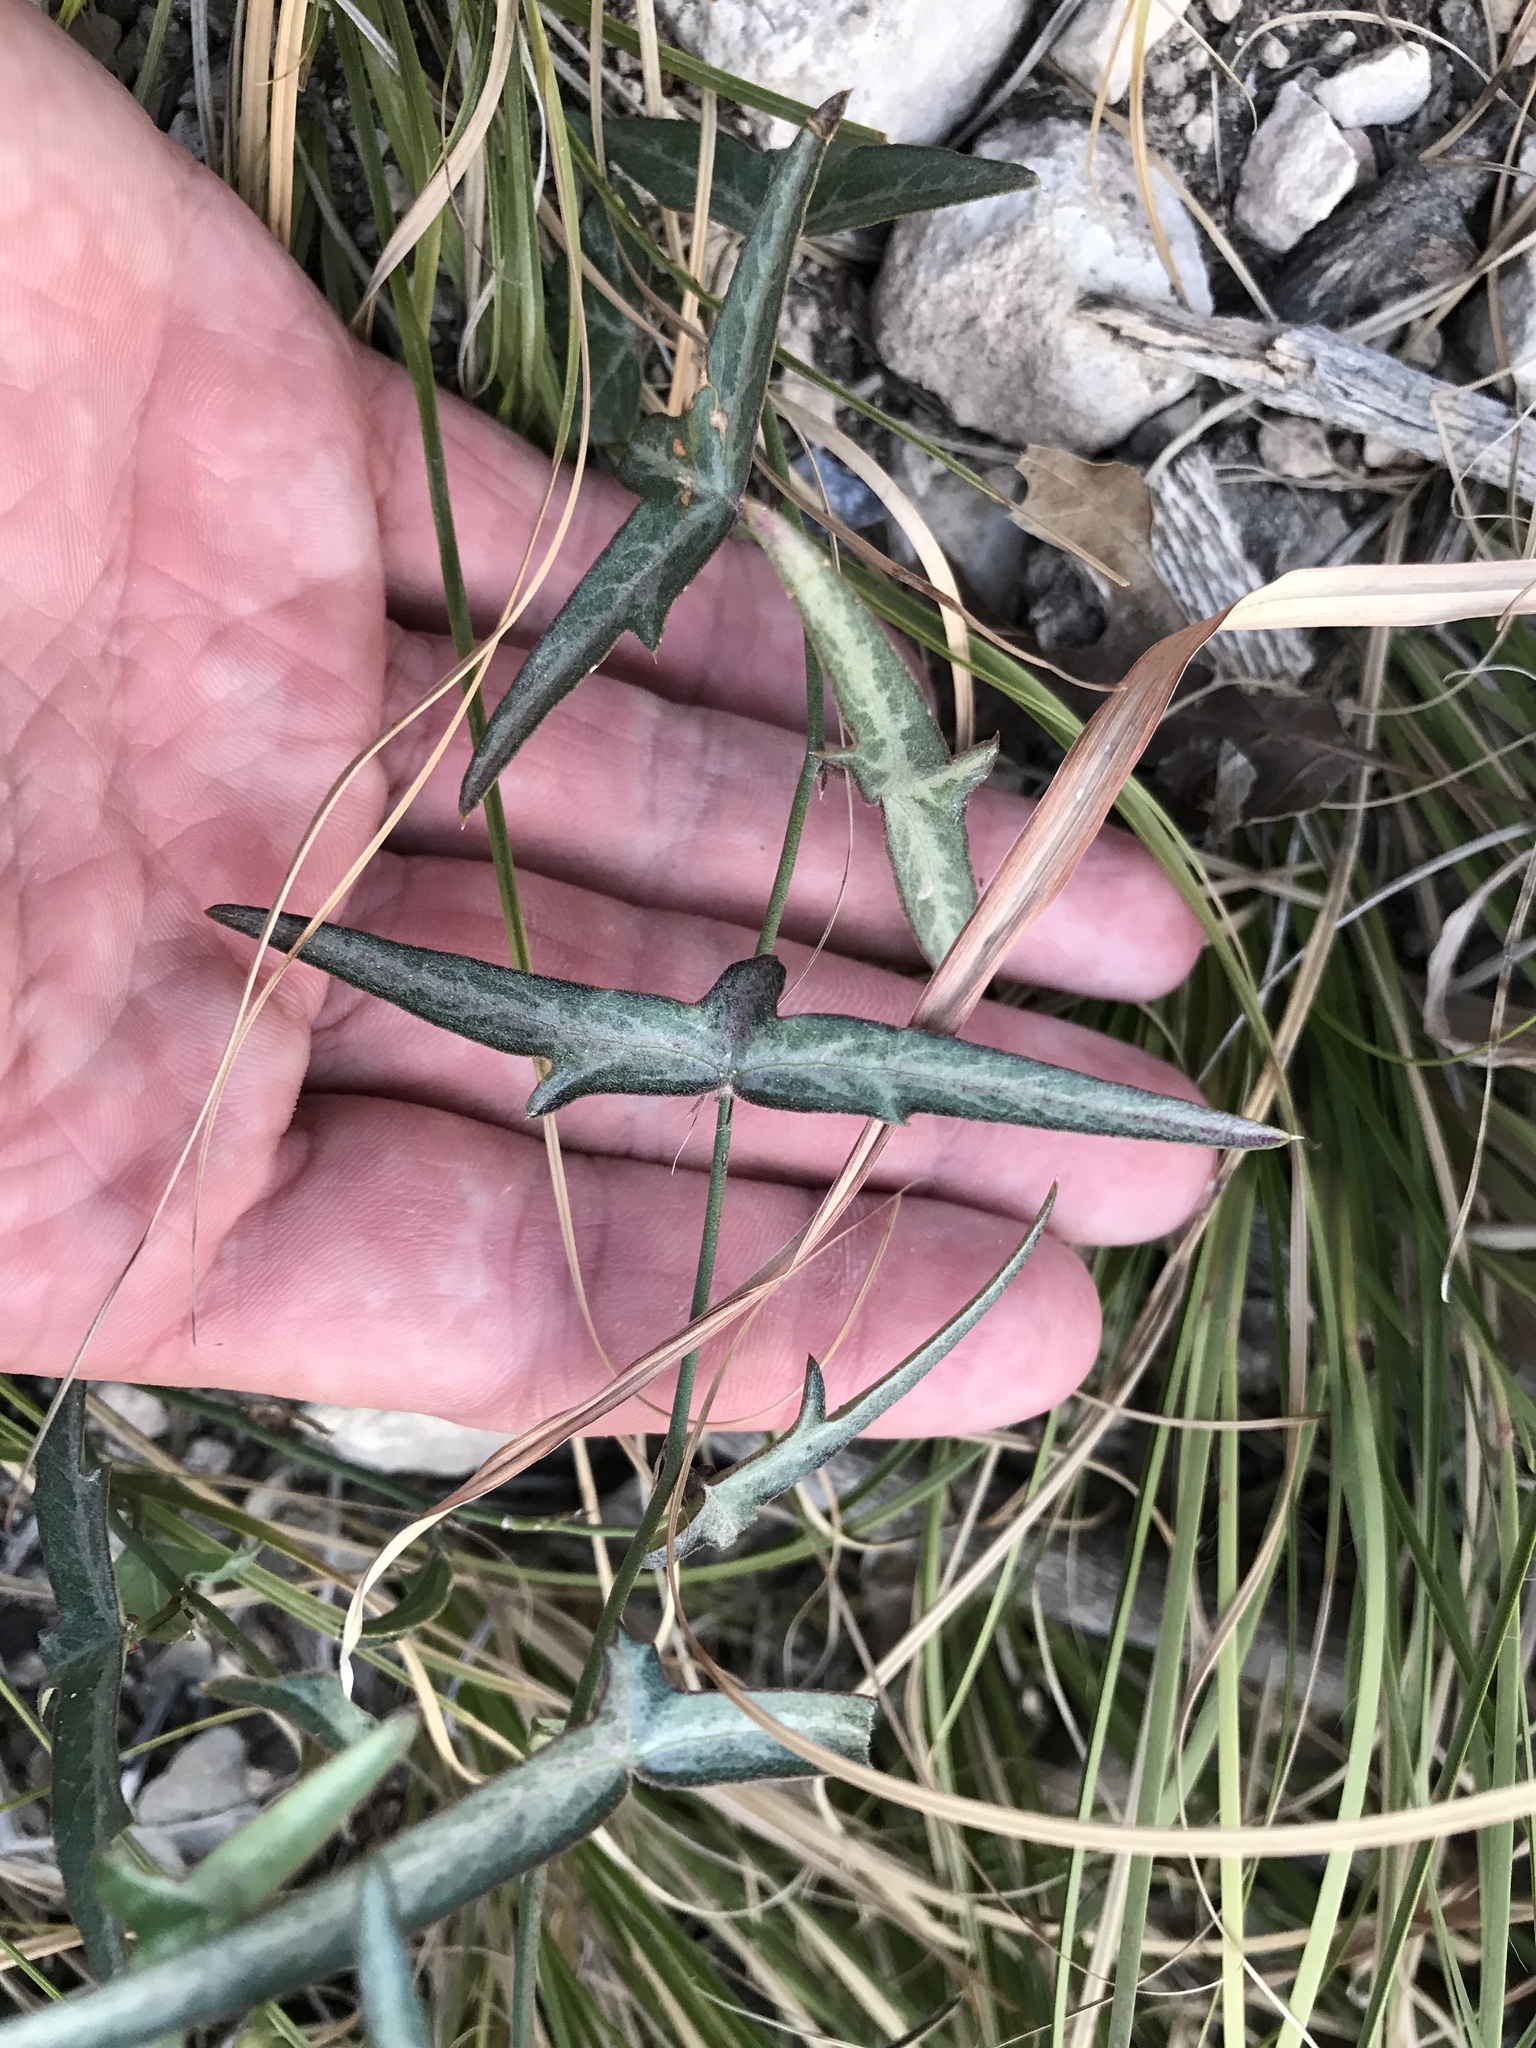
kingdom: Plantae
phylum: Tracheophyta
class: Magnoliopsida
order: Malpighiales
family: Passifloraceae
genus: Passiflora
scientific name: Passiflora tenuiloba
